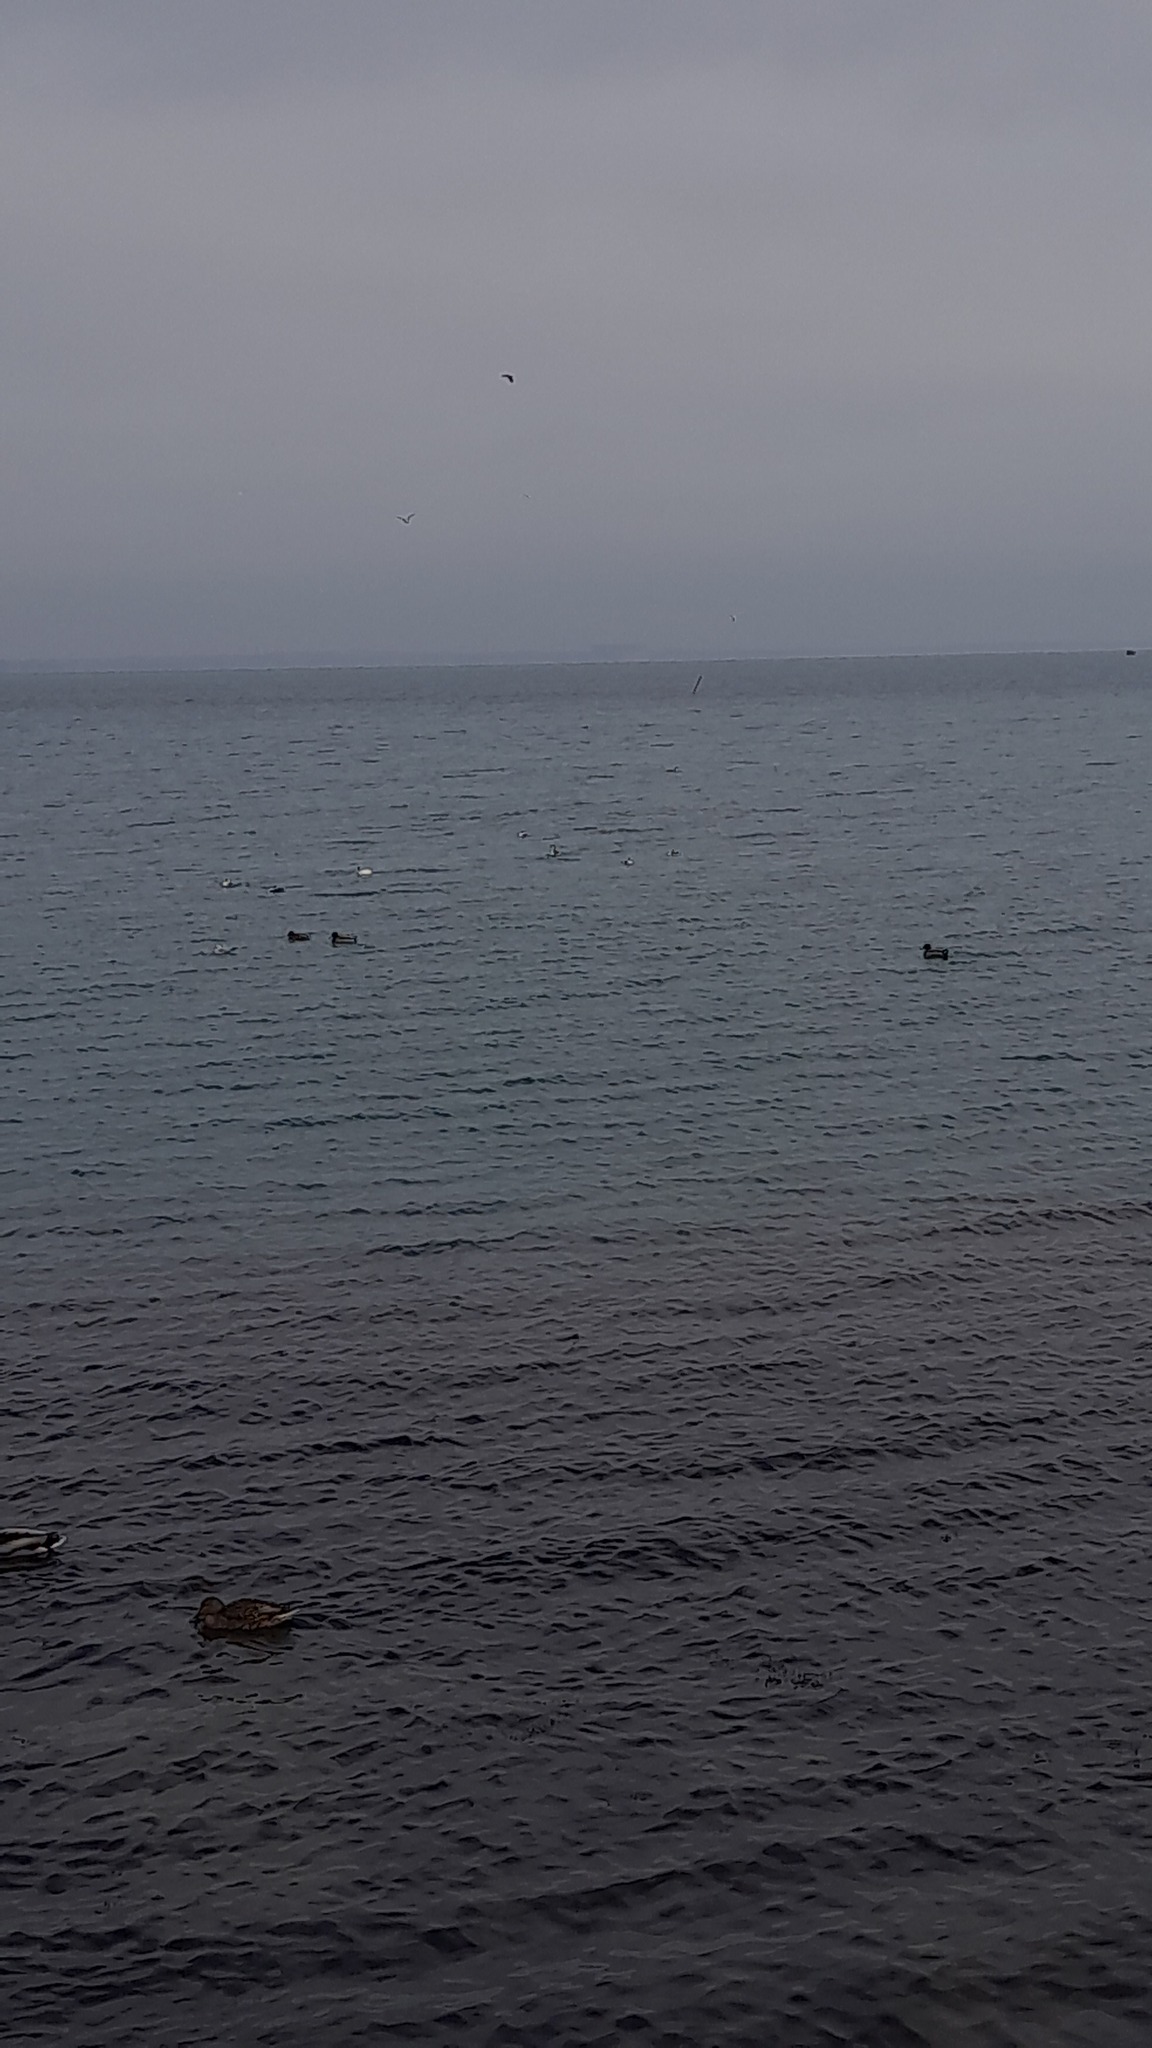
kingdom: Animalia
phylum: Chordata
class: Aves
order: Anseriformes
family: Anatidae
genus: Anas
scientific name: Anas platyrhynchos
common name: Mallard
